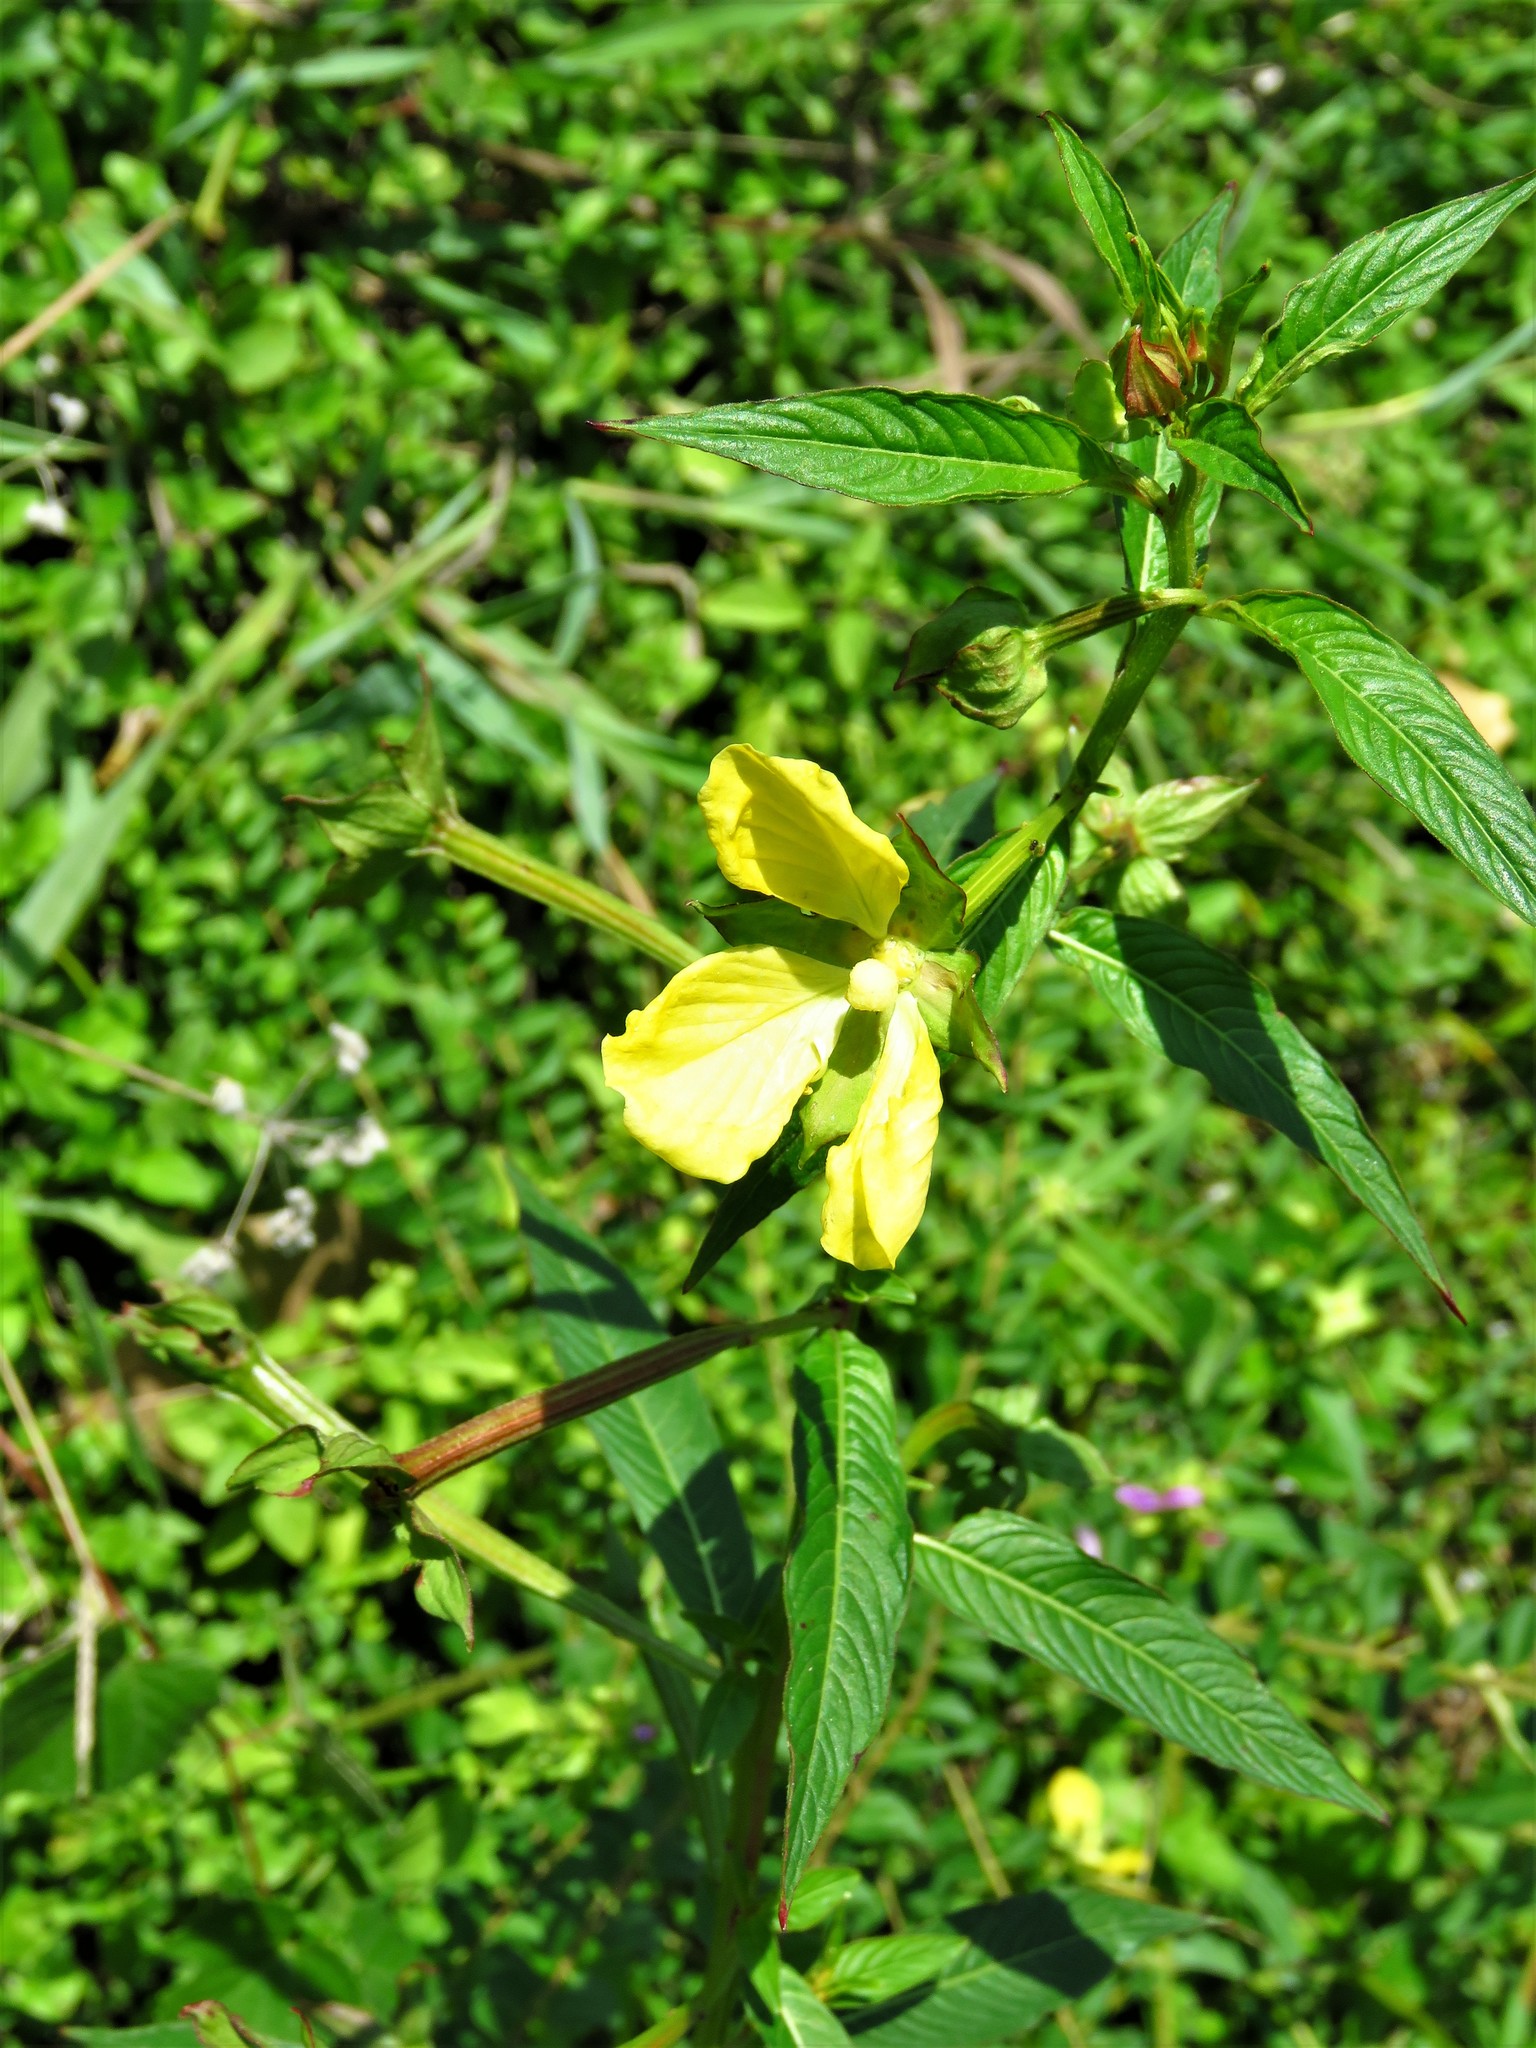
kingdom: Plantae
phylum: Tracheophyta
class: Magnoliopsida
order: Myrtales
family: Onagraceae
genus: Ludwigia
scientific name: Ludwigia octovalvis
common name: Water-primrose
